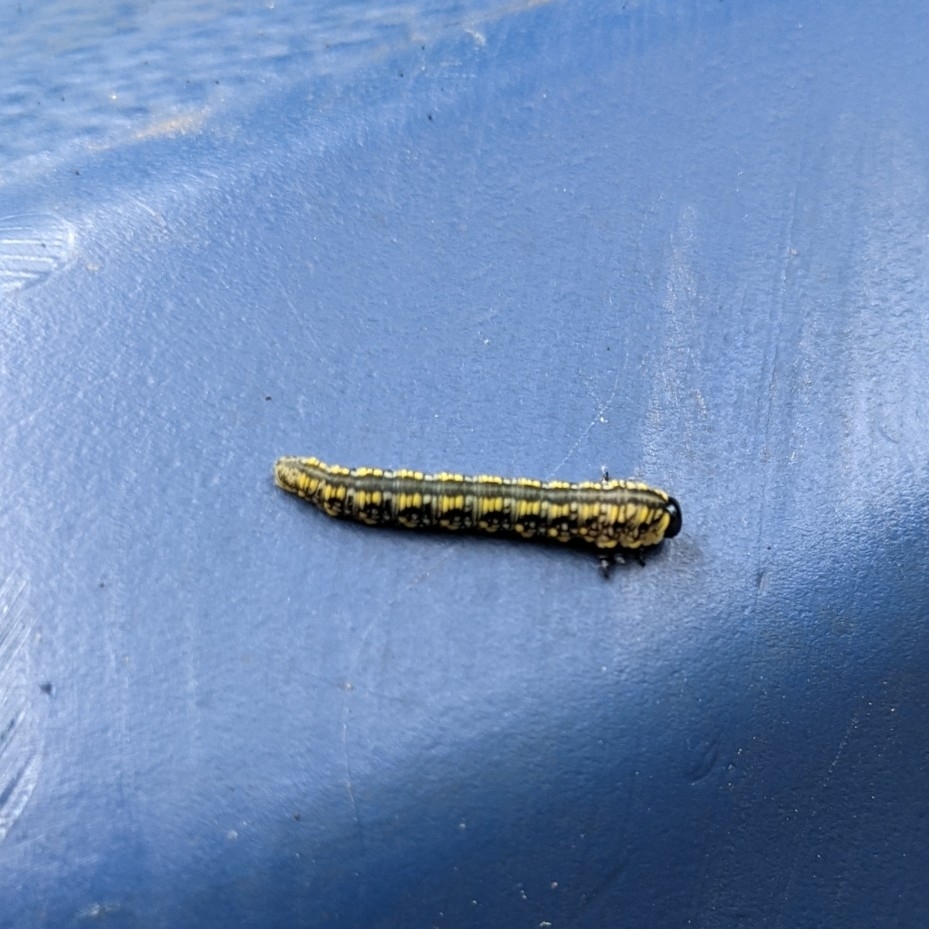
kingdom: Animalia
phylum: Arthropoda
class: Insecta
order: Hymenoptera
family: Diprionidae
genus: Diprion
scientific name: Diprion similis
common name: Pine sawfly
